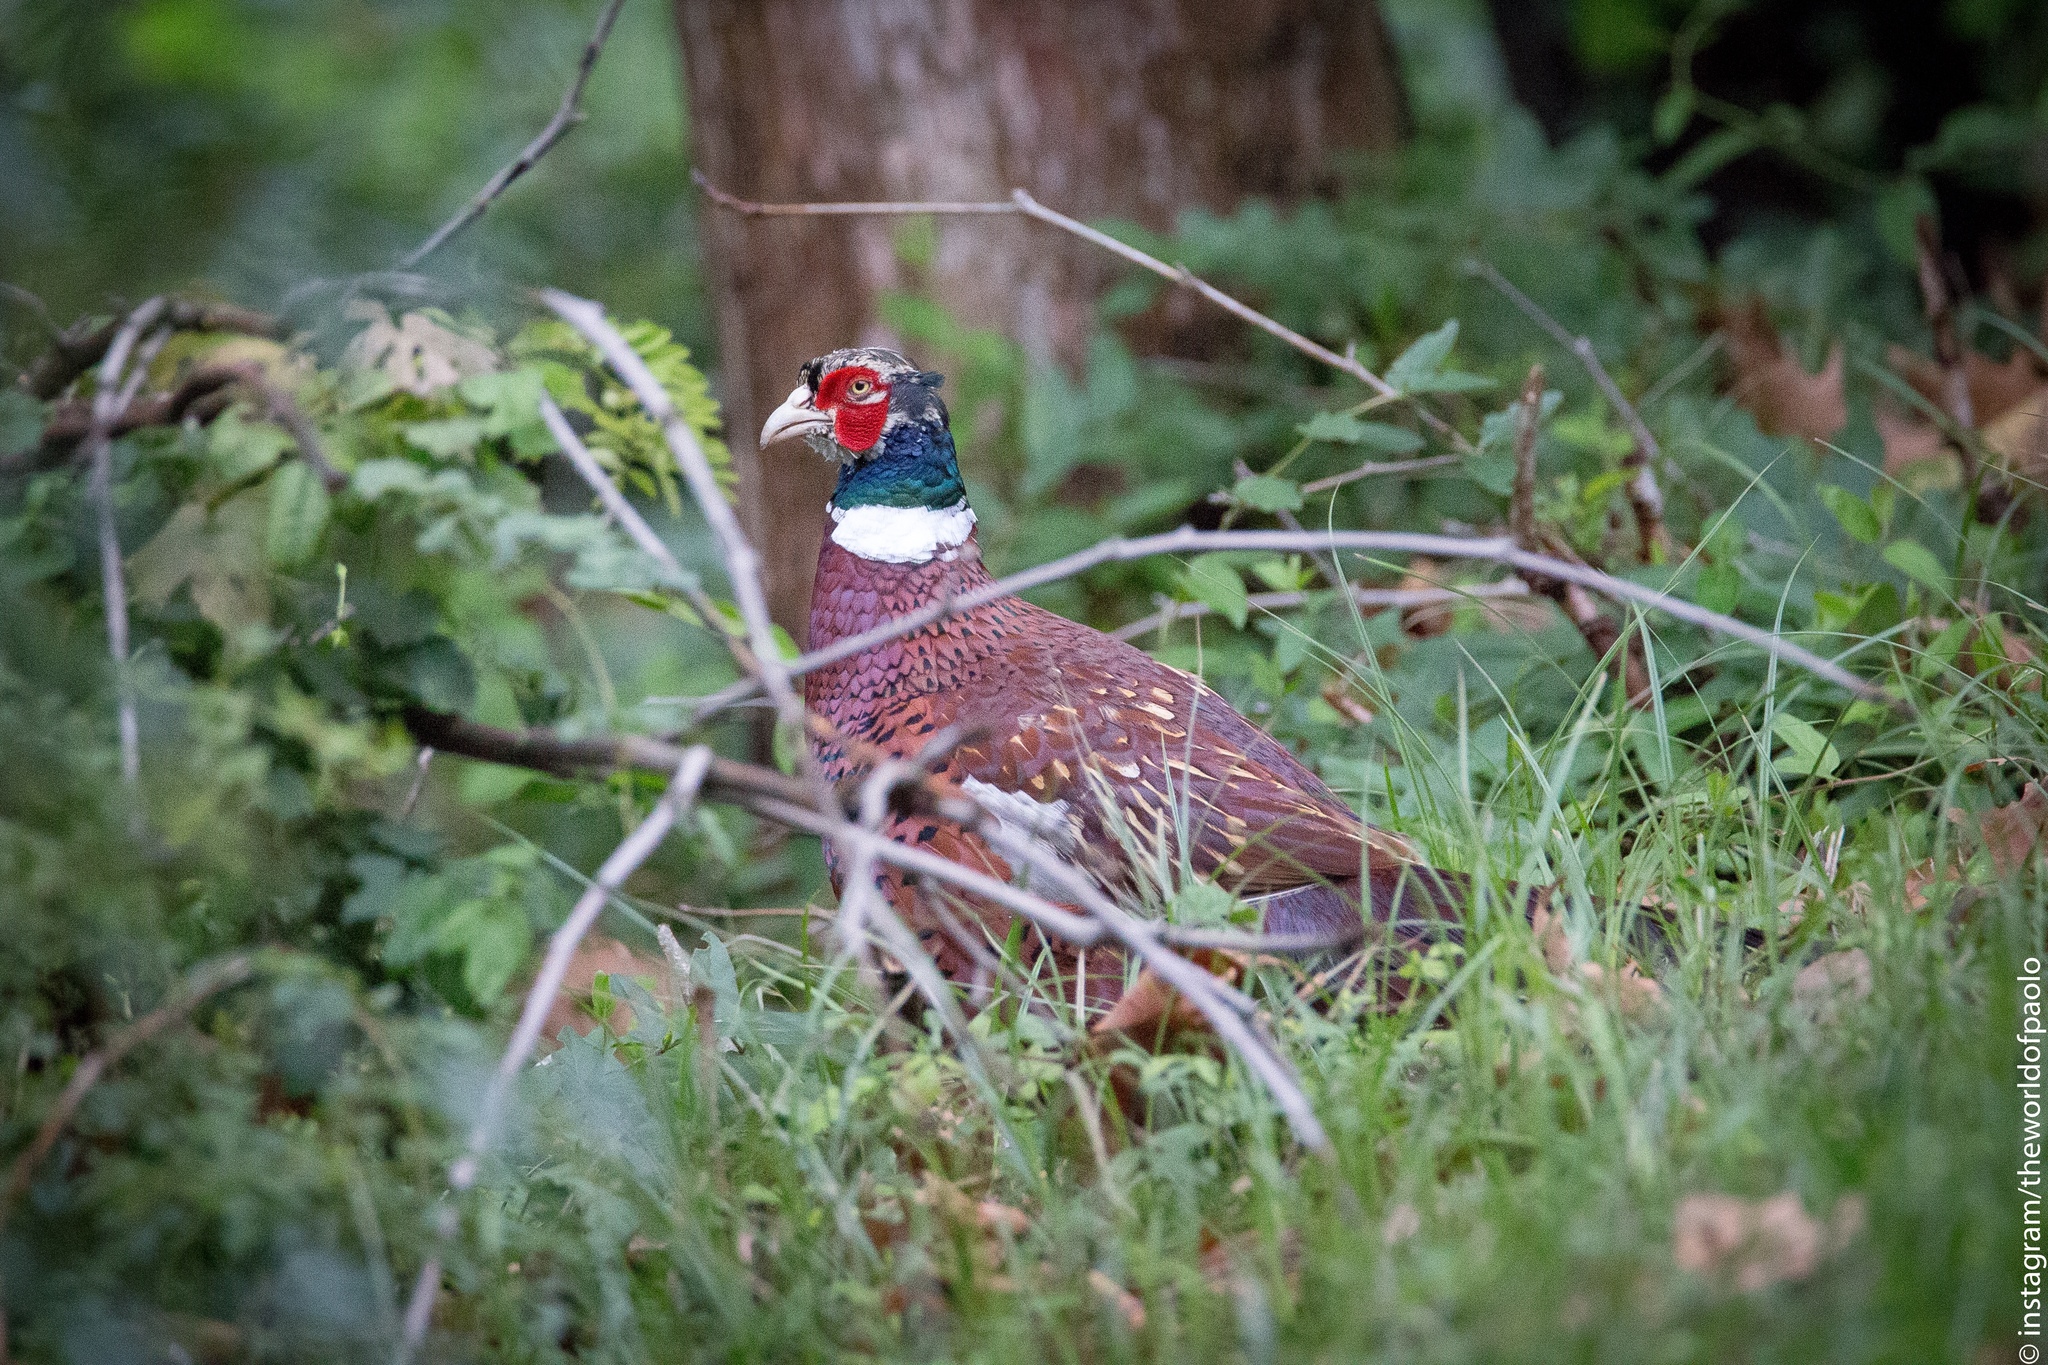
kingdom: Animalia
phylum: Chordata
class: Aves
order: Galliformes
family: Phasianidae
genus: Phasianus
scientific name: Phasianus colchicus
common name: Common pheasant
